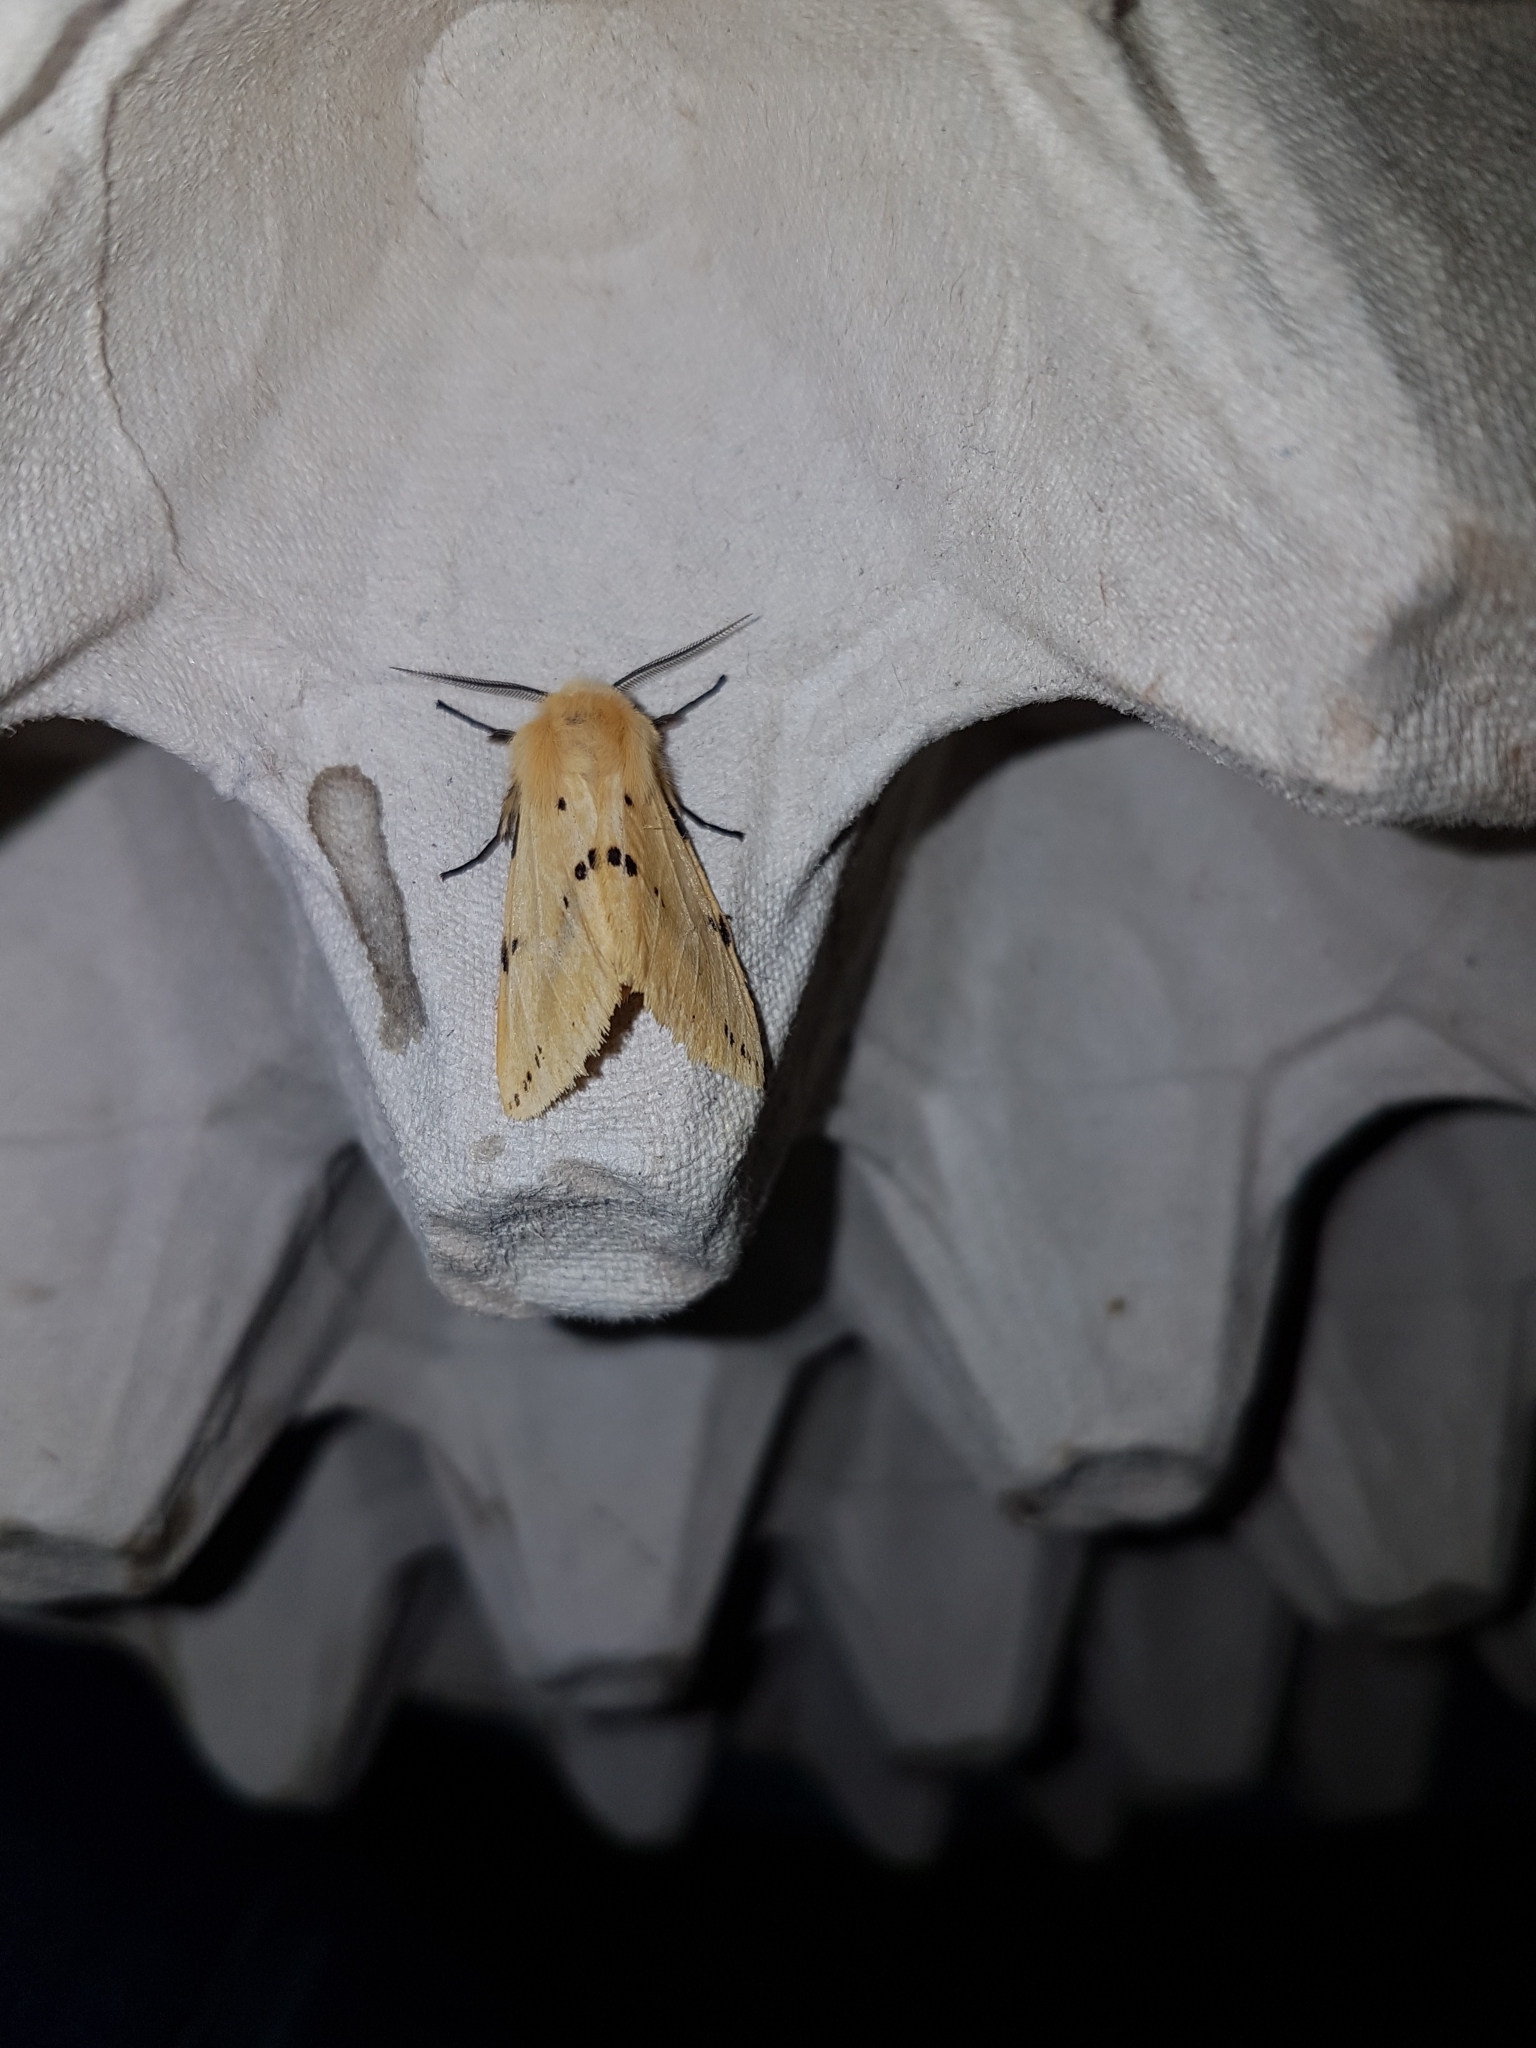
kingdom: Animalia
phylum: Arthropoda
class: Insecta
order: Lepidoptera
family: Erebidae
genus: Spilarctia
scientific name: Spilarctia lutea
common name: Buff ermine
